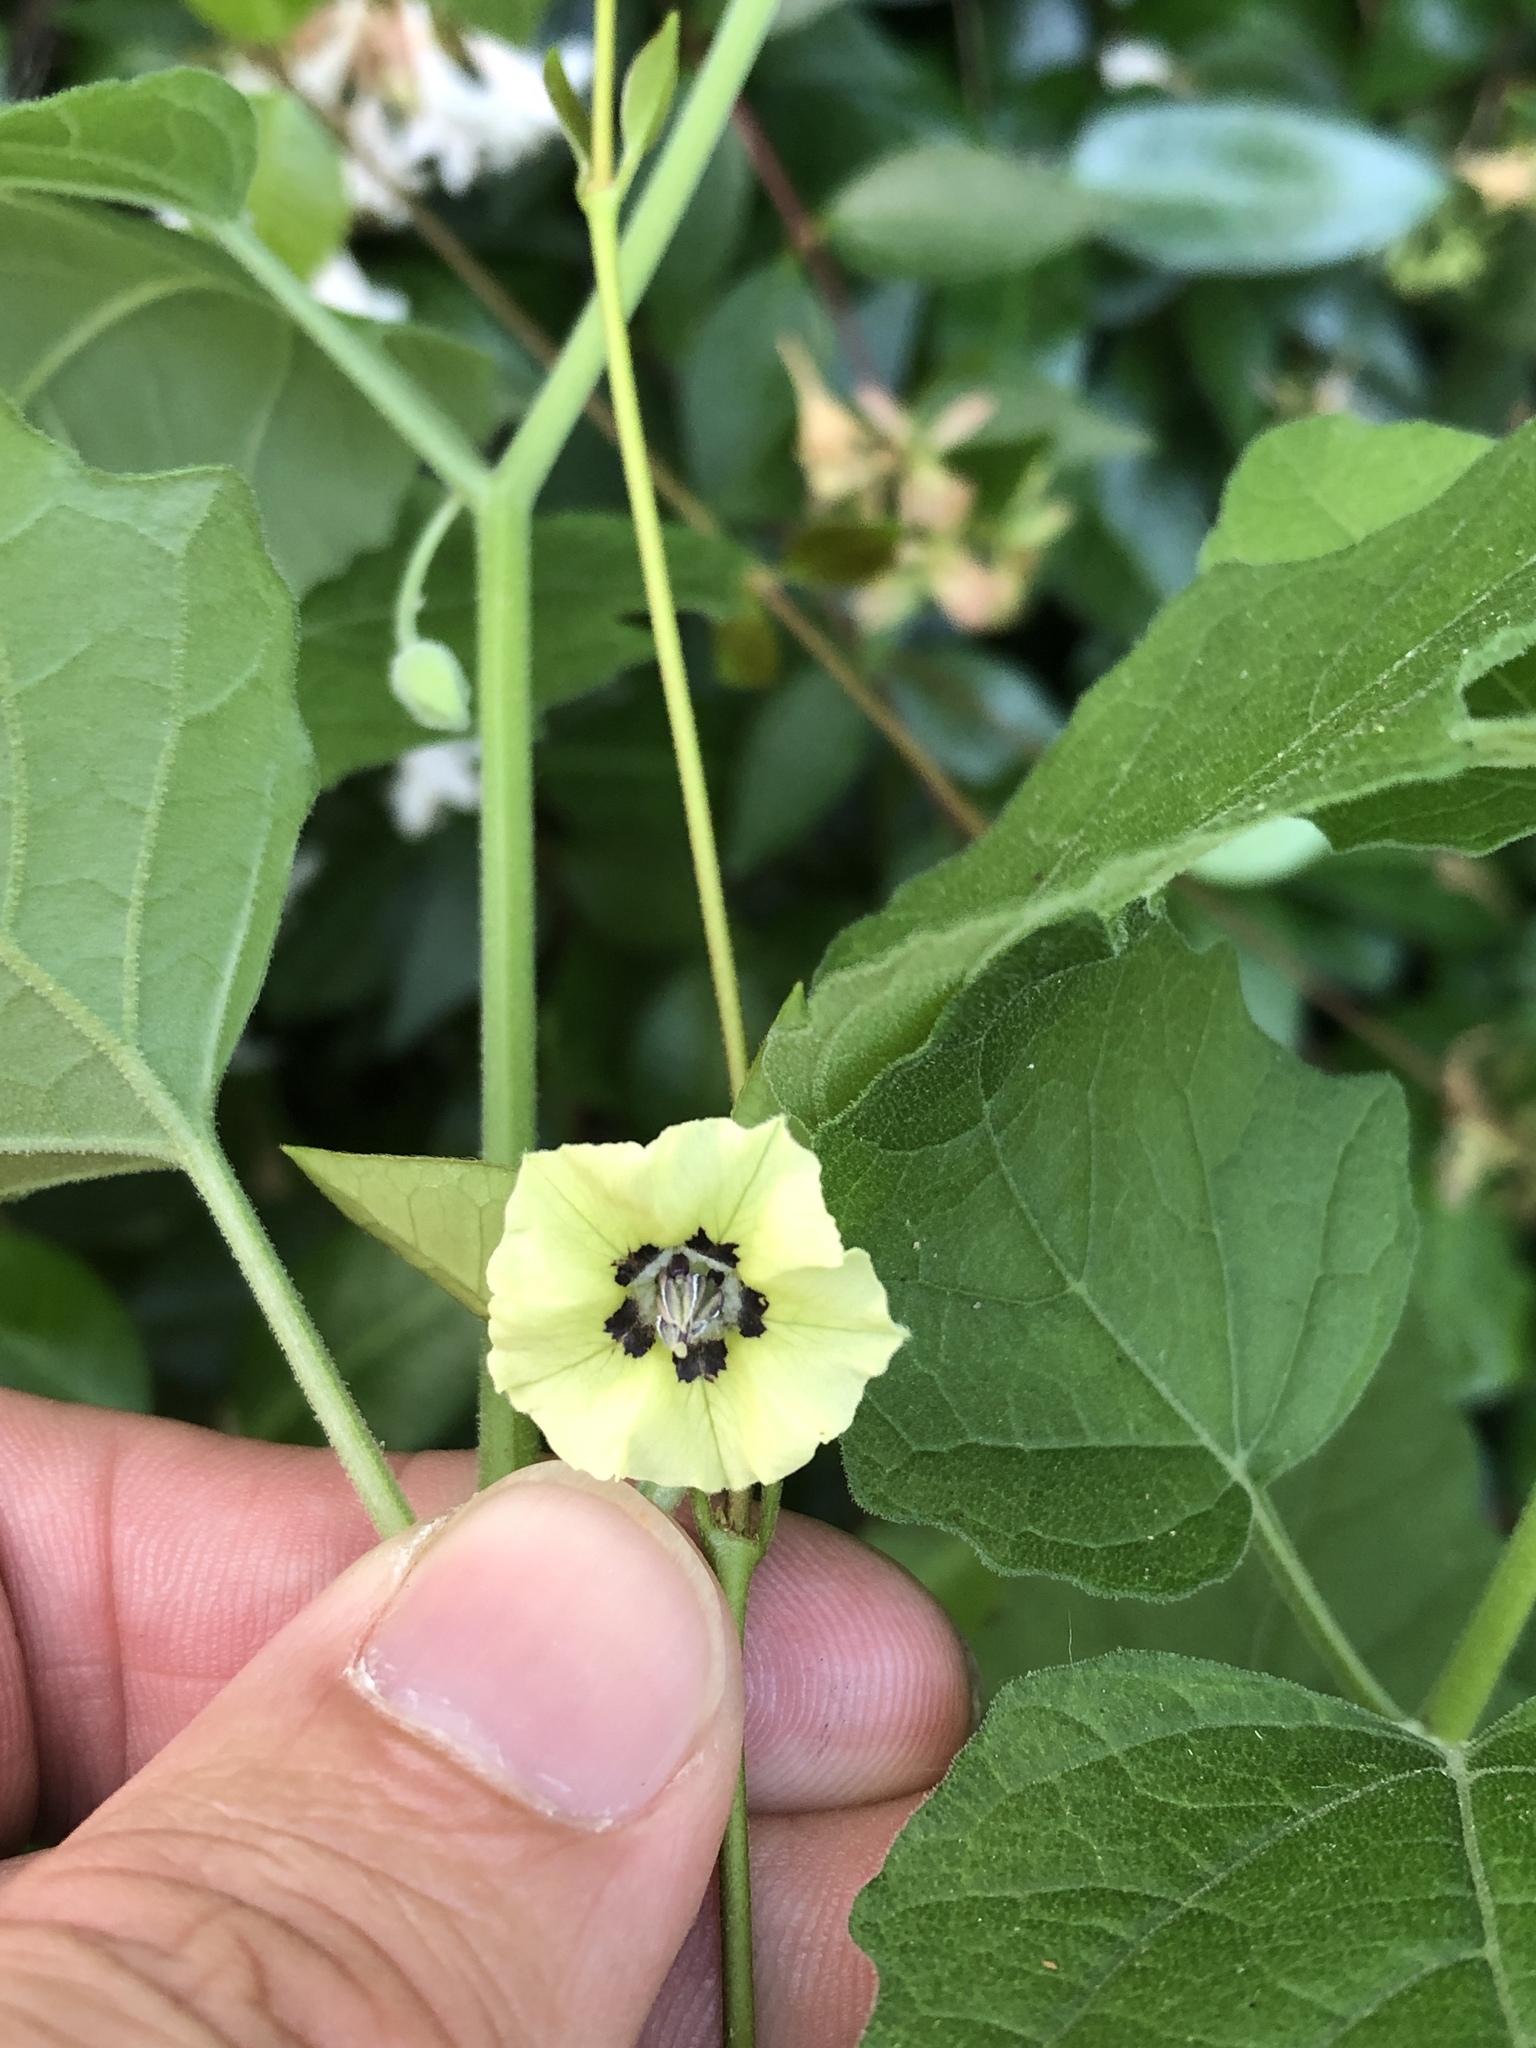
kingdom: Plantae
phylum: Tracheophyta
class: Magnoliopsida
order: Solanales
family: Solanaceae
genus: Physalis
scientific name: Physalis cinerascens
